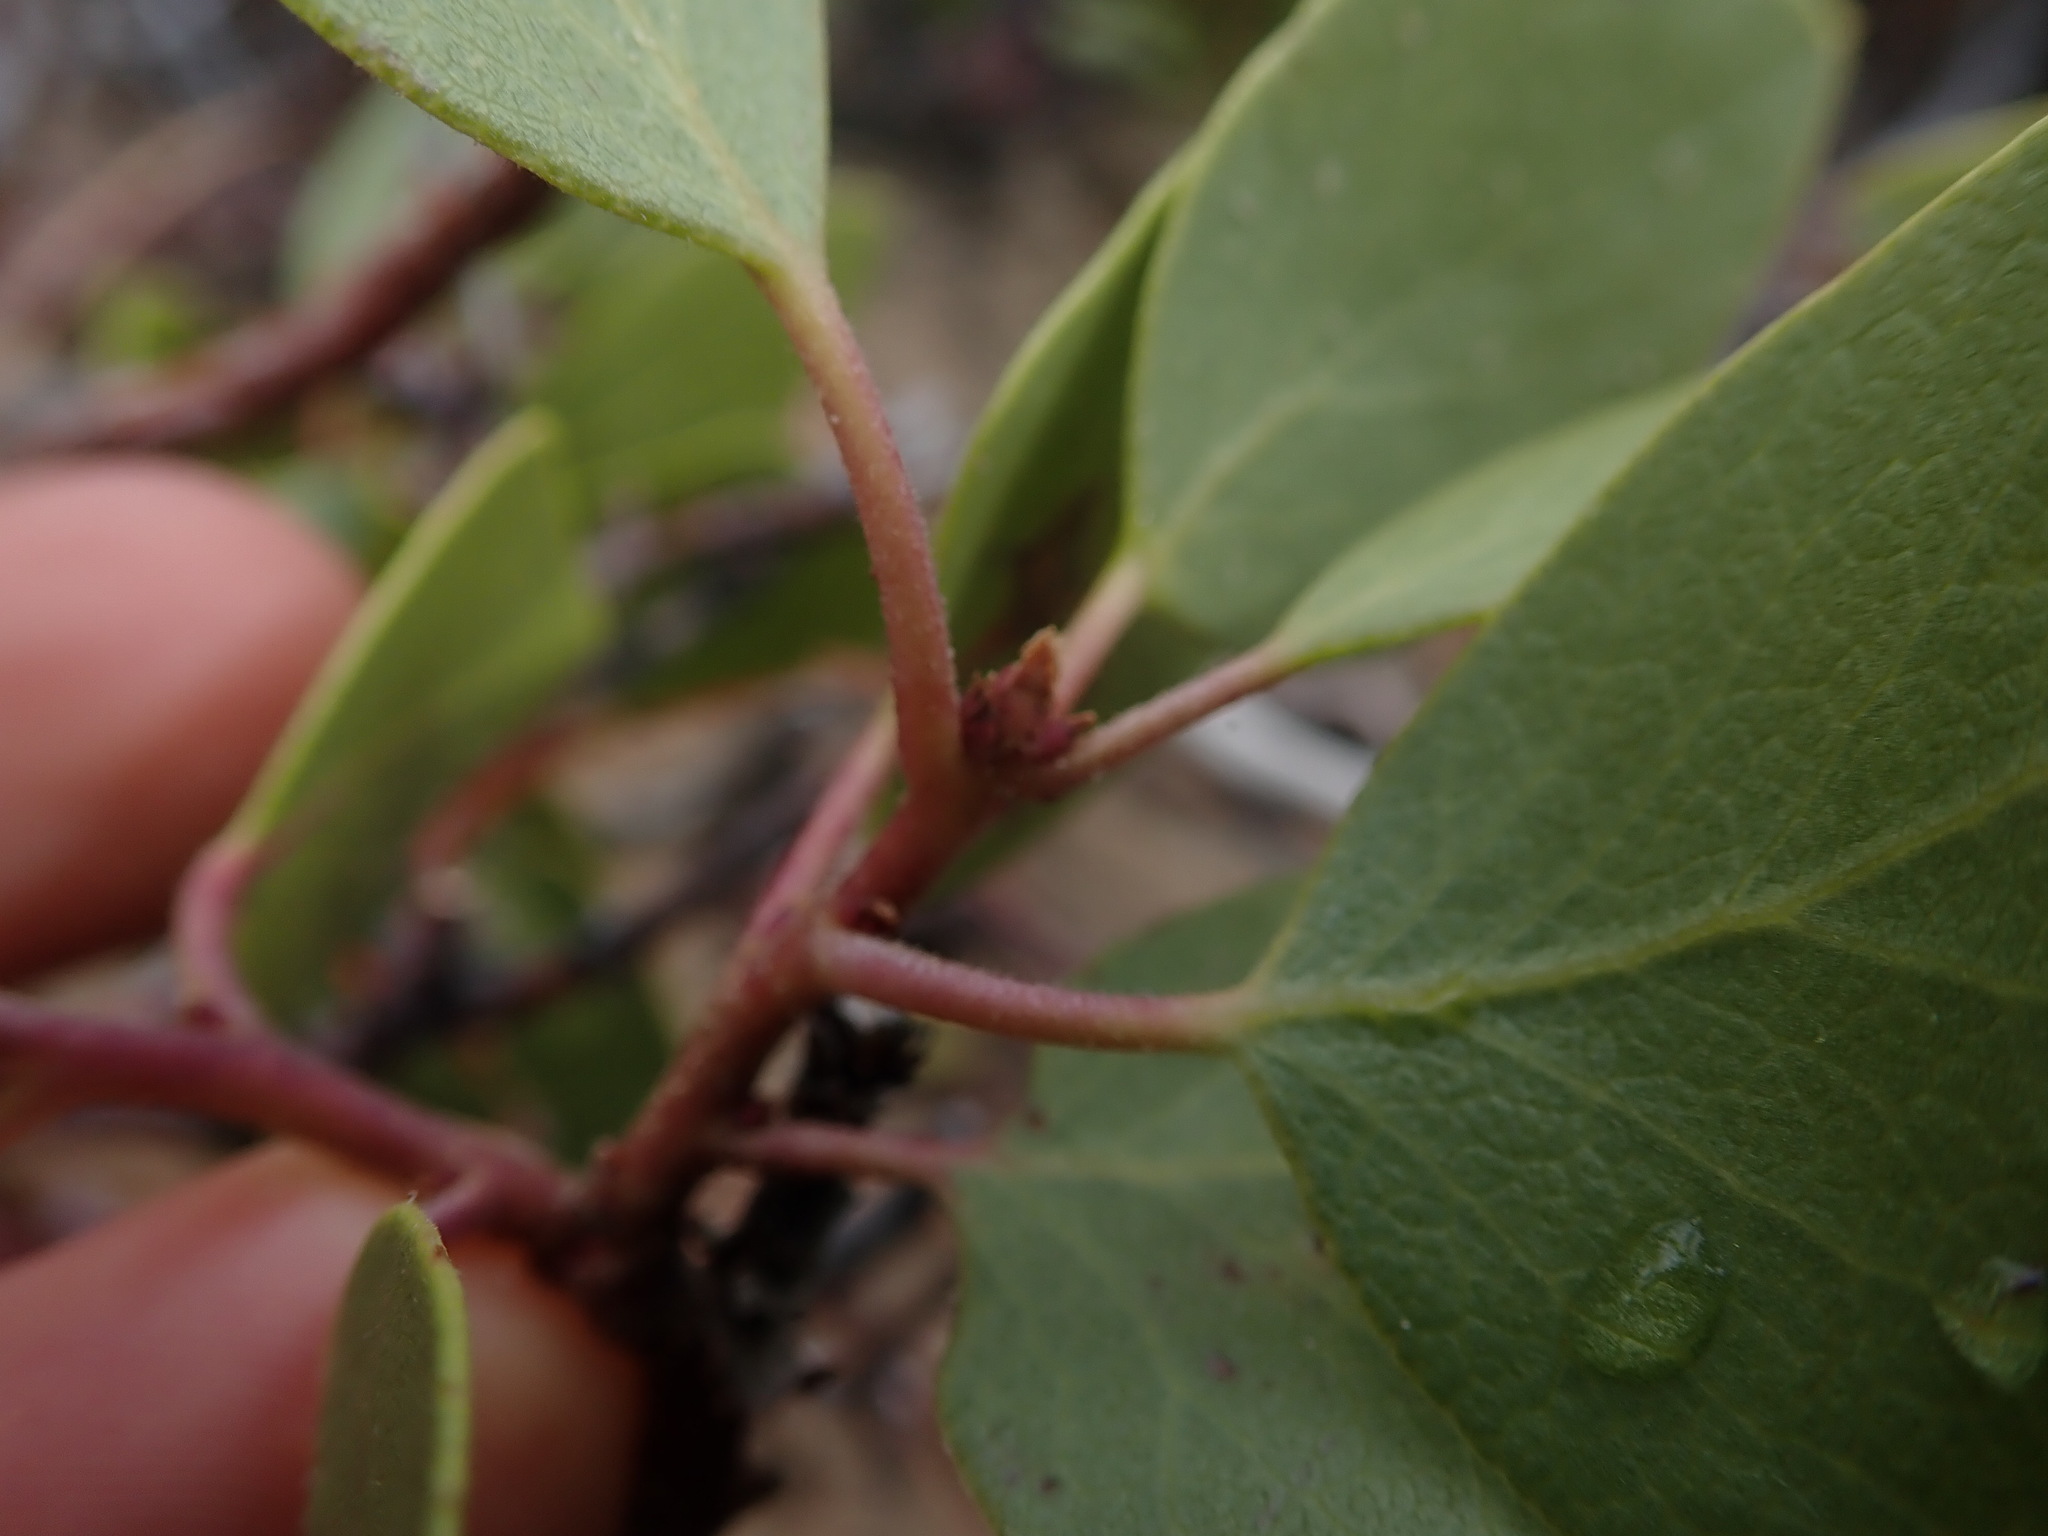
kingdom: Plantae
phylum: Tracheophyta
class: Magnoliopsida
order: Ericales
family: Ericaceae
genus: Arctostaphylos
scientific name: Arctostaphylos patula
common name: Green-leaf manzanita
